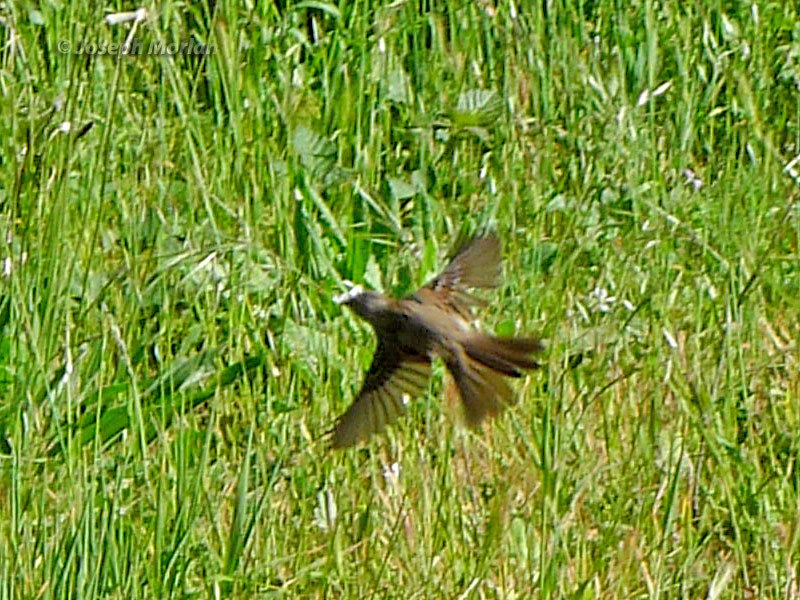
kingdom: Animalia
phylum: Chordata
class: Aves
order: Passeriformes
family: Passerellidae
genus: Zonotrichia
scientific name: Zonotrichia atricapilla
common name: Golden-crowned sparrow
